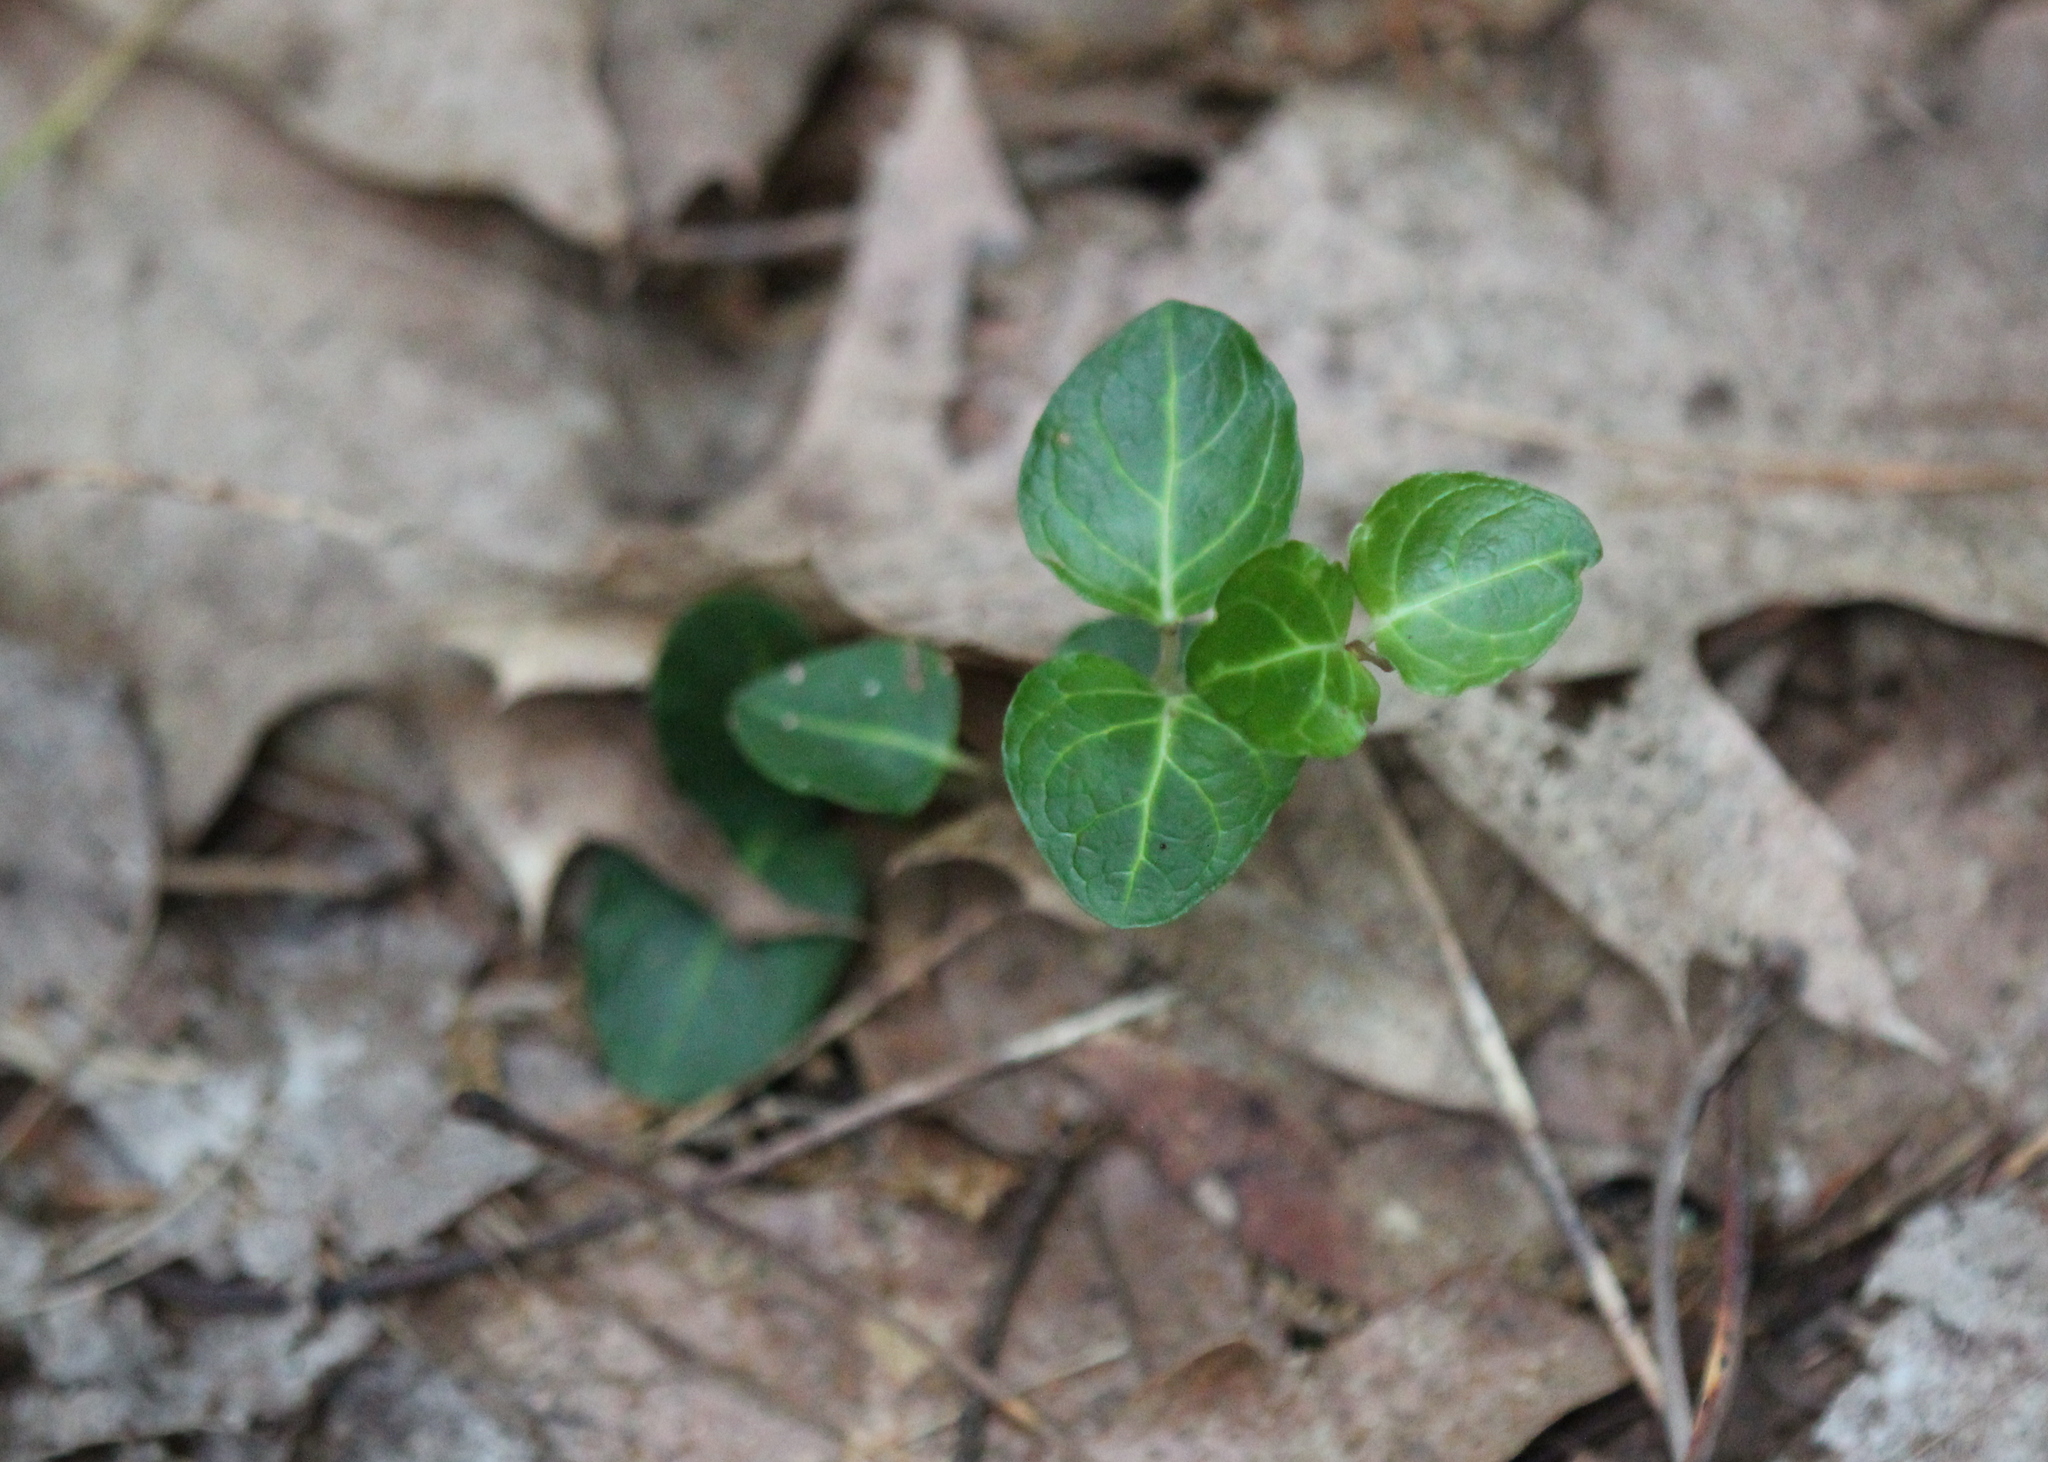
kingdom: Plantae
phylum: Tracheophyta
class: Magnoliopsida
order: Gentianales
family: Rubiaceae
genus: Mitchella
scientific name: Mitchella repens
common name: Partridge-berry
